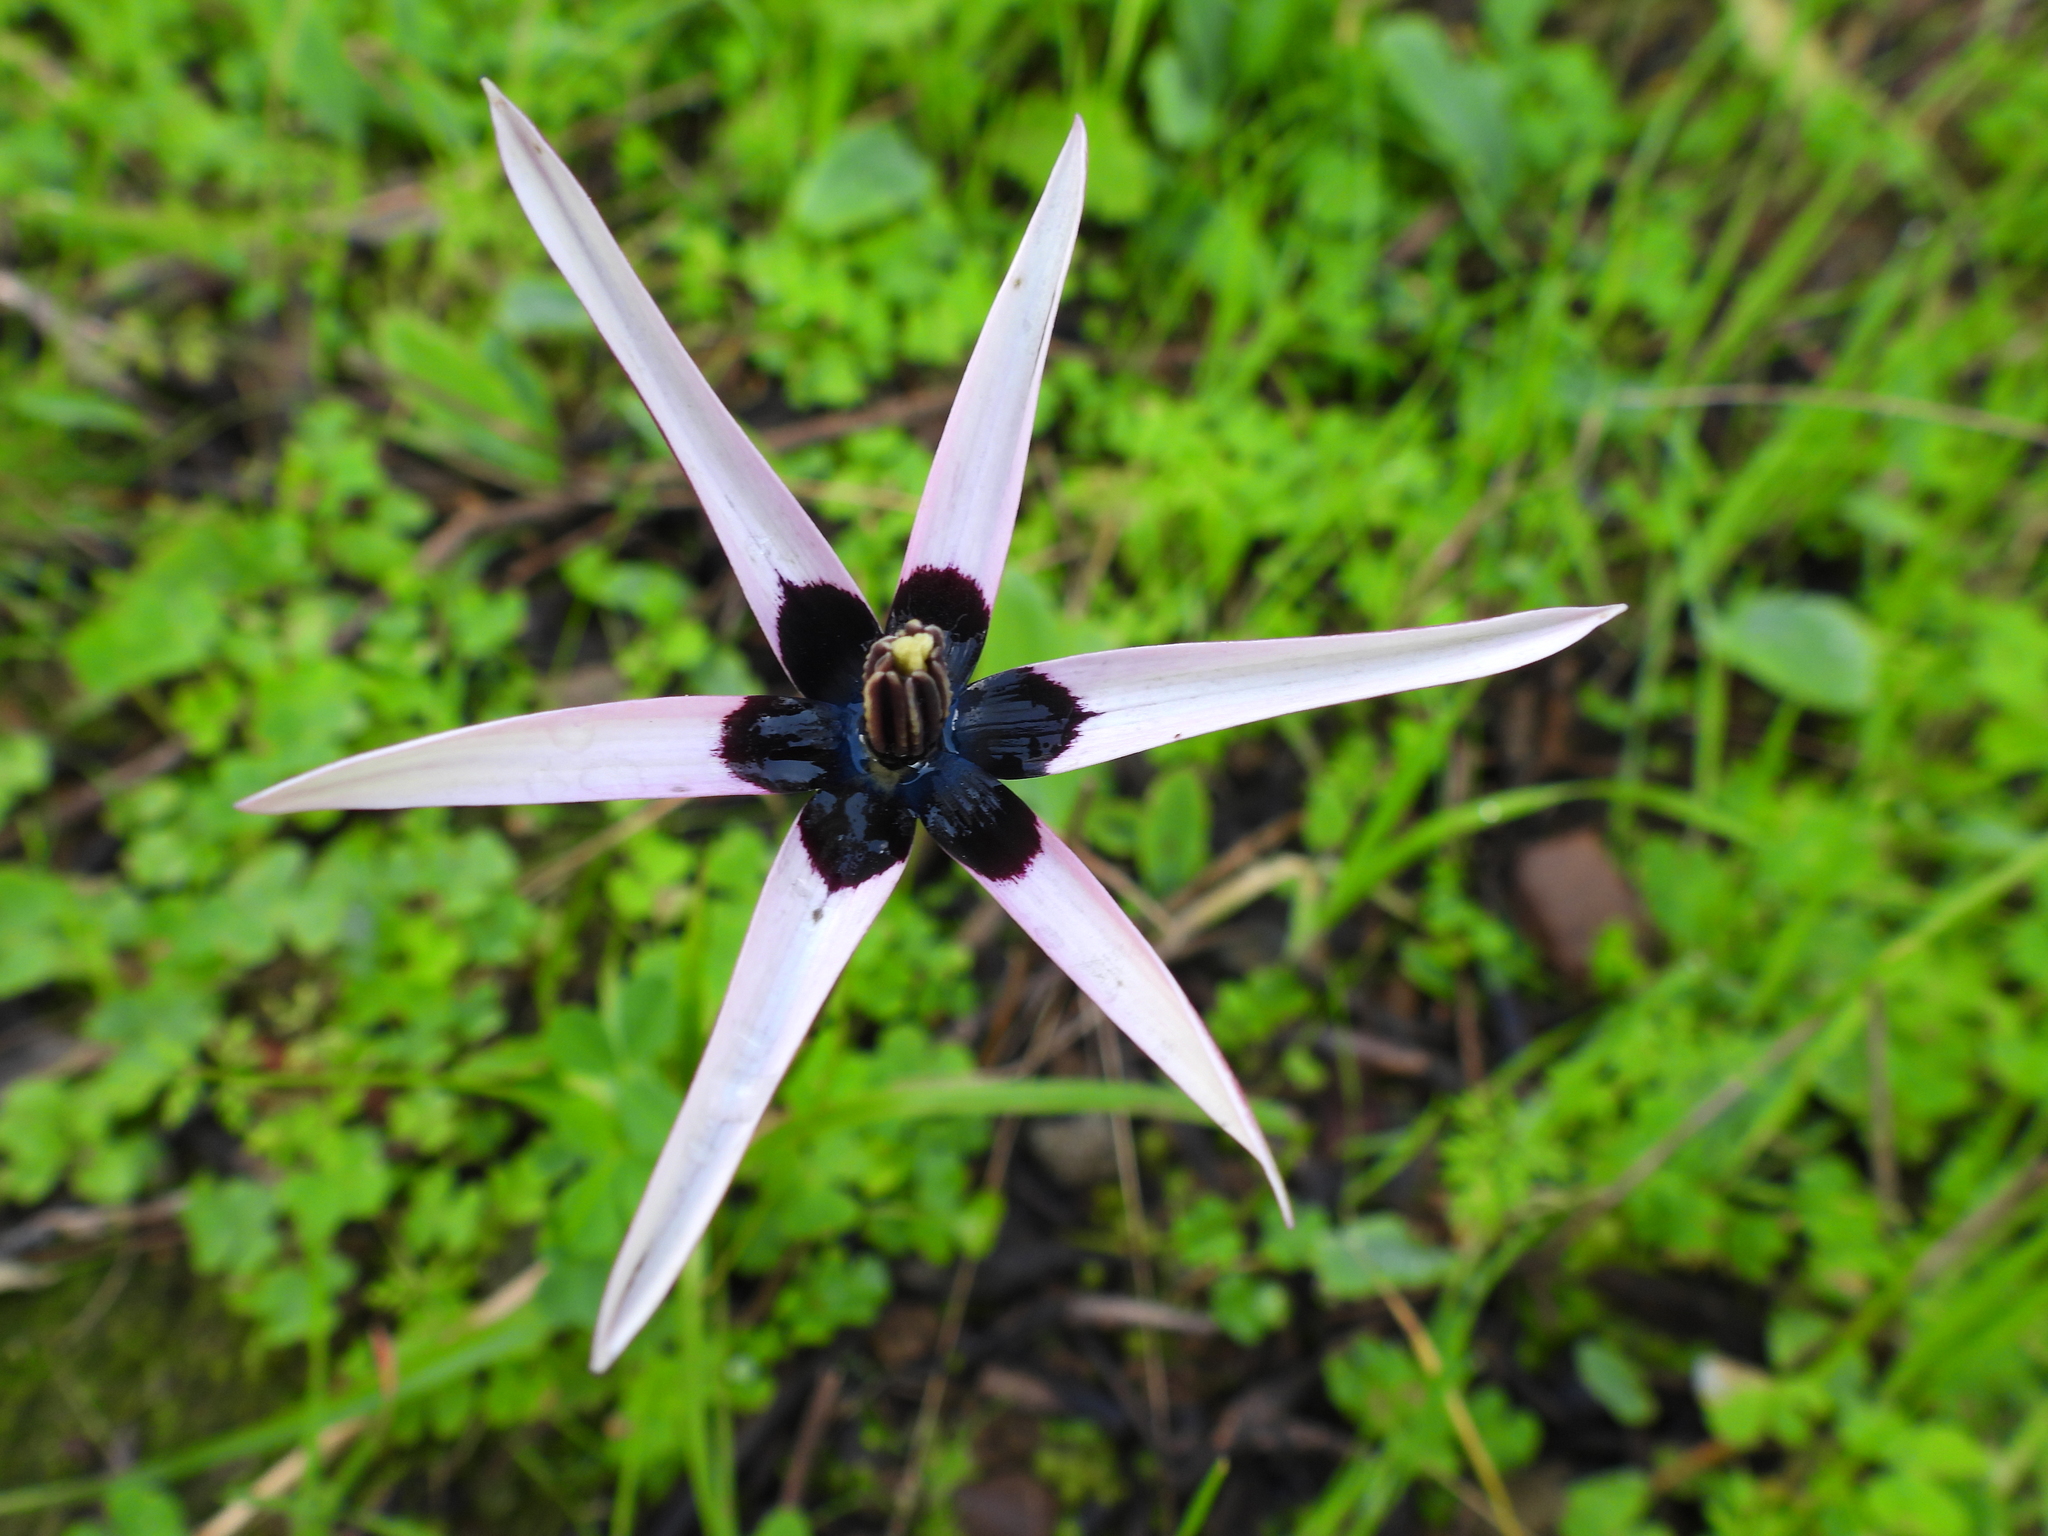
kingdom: Plantae
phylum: Tracheophyta
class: Liliopsida
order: Asparagales
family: Hypoxidaceae
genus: Pauridia
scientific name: Pauridia capensis
